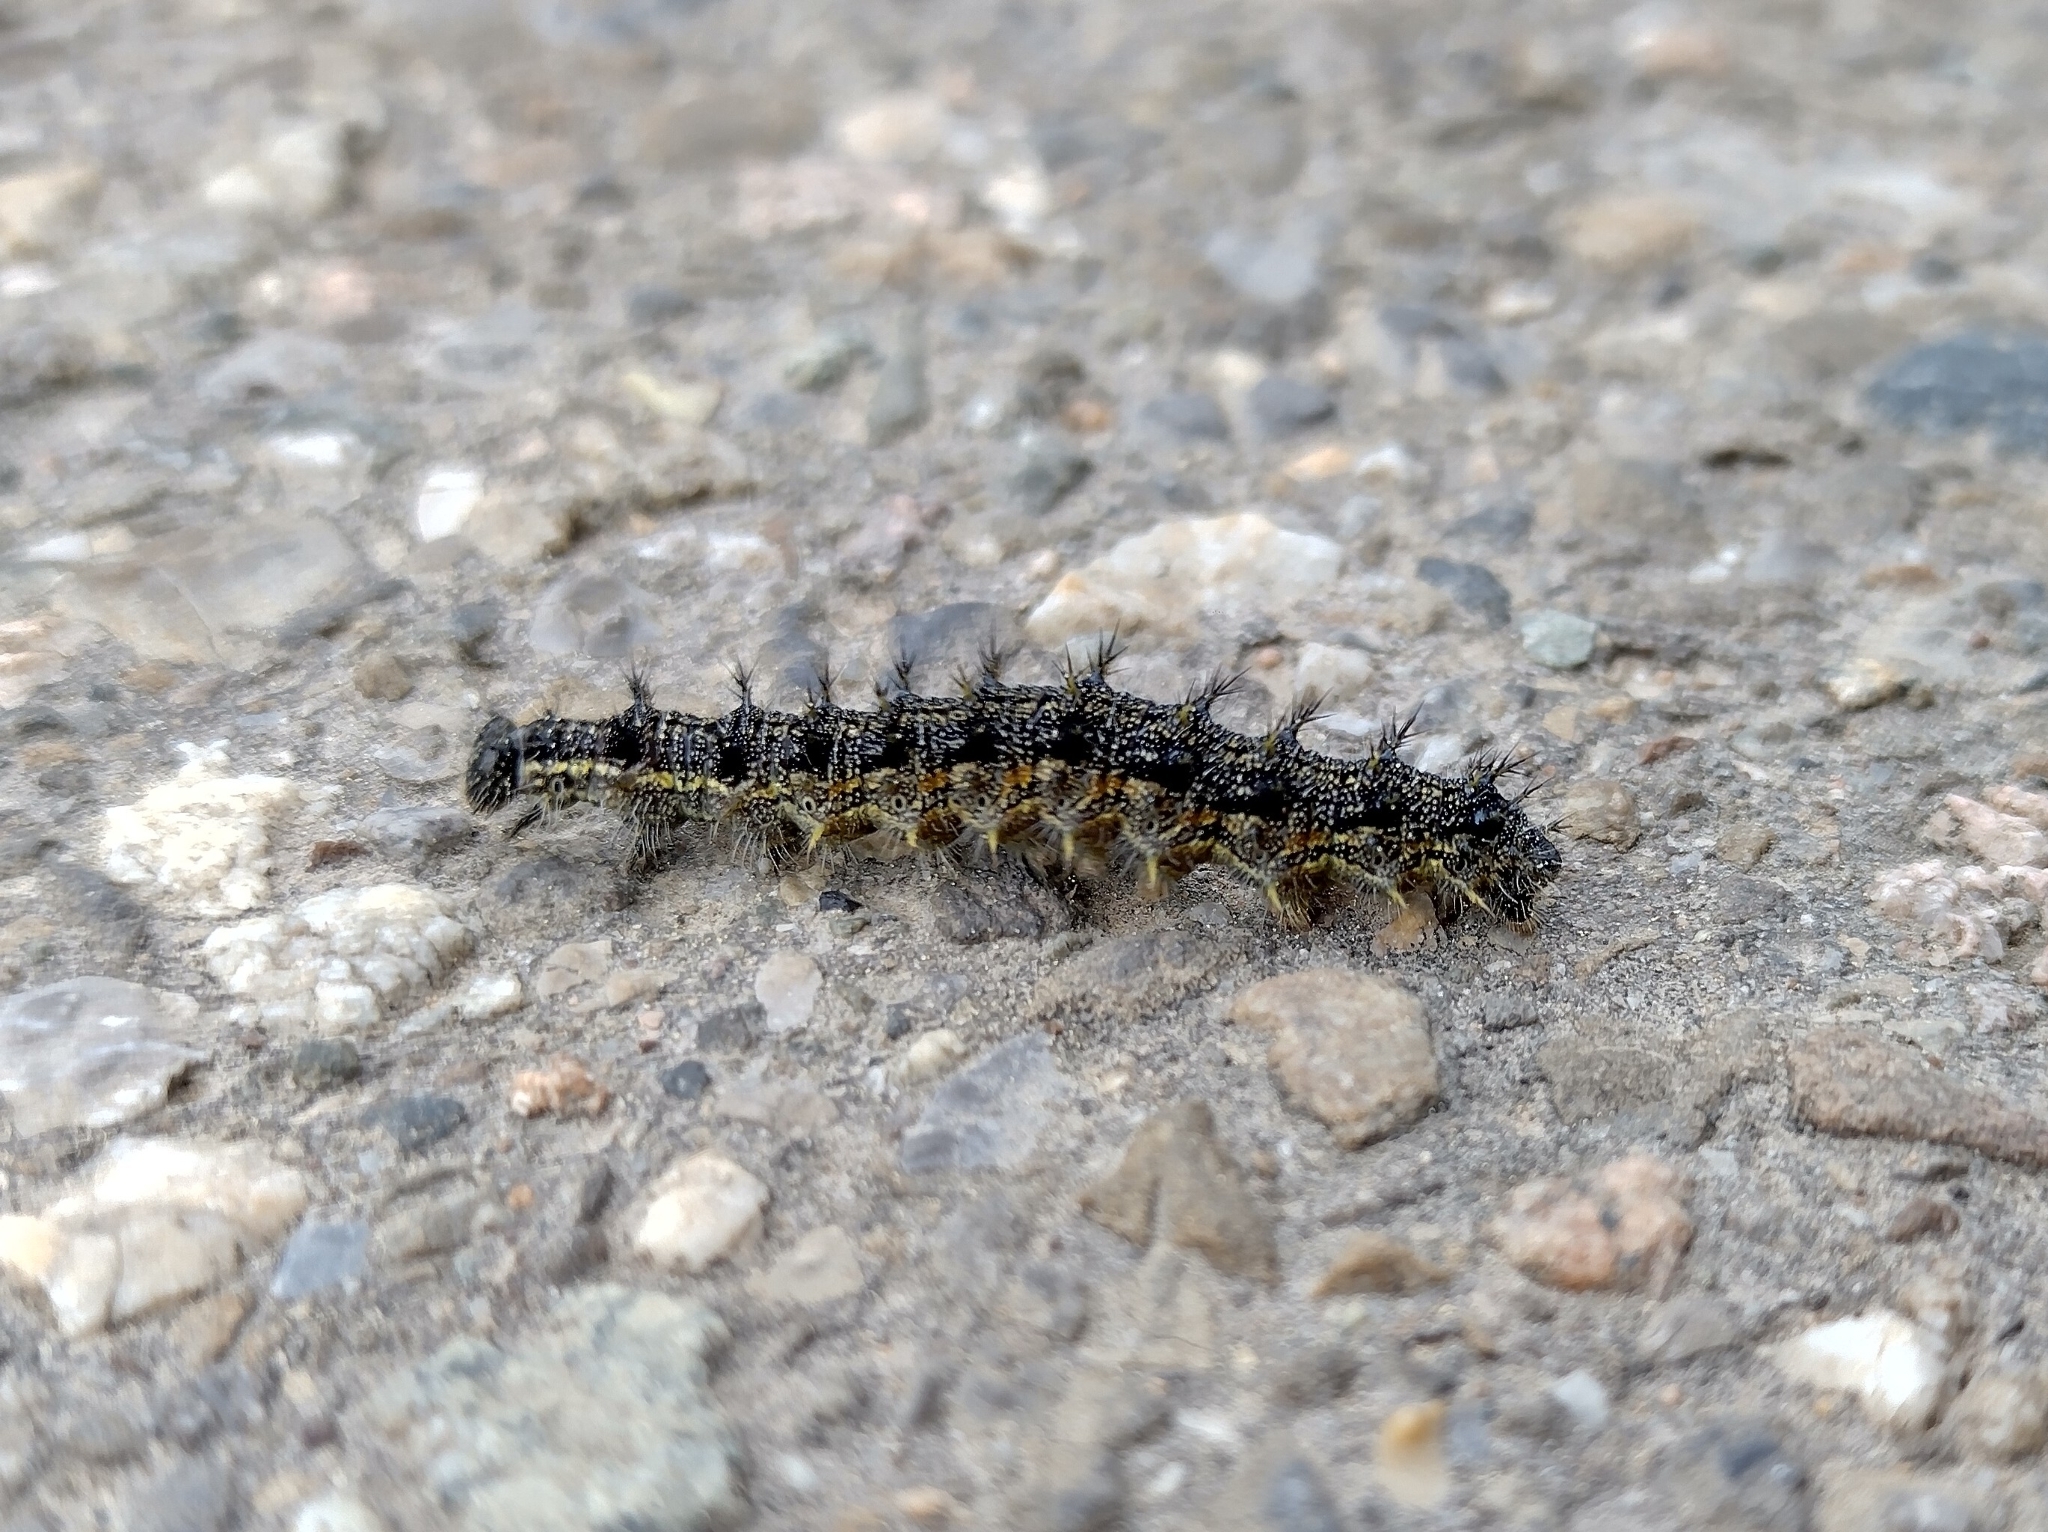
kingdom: Animalia
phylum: Arthropoda
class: Insecta
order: Lepidoptera
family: Nymphalidae
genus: Aglais
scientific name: Aglais urticae
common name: Small tortoiseshell
